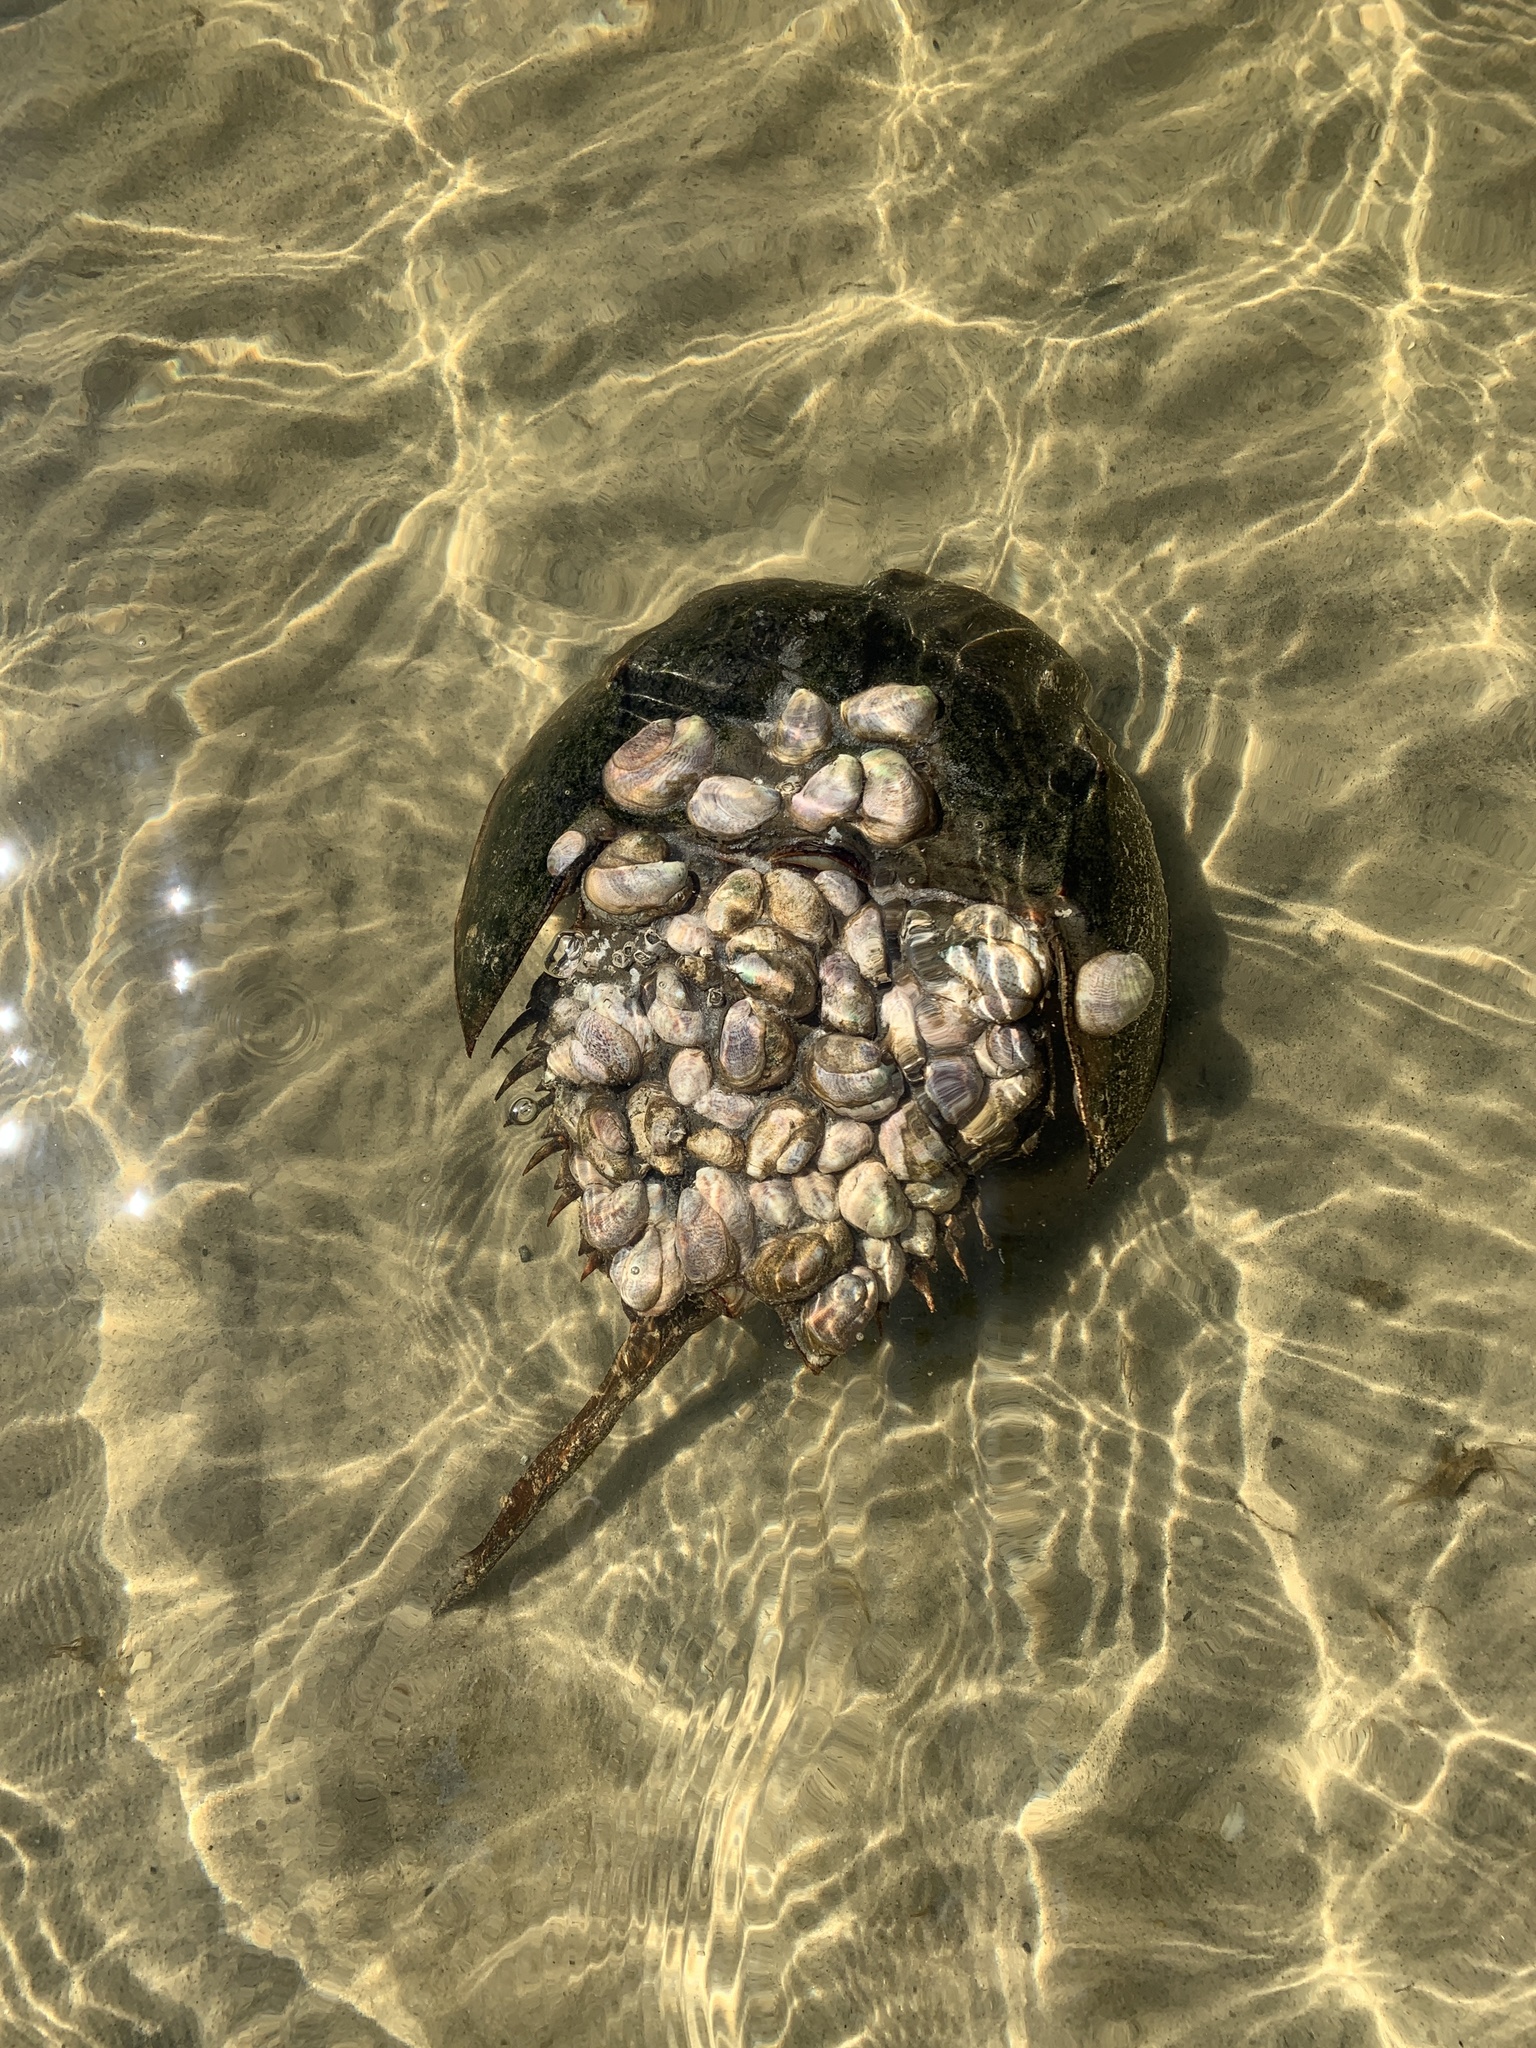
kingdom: Animalia
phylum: Arthropoda
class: Merostomata
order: Xiphosurida
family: Limulidae
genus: Limulus
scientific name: Limulus polyphemus
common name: Horseshoe crab
